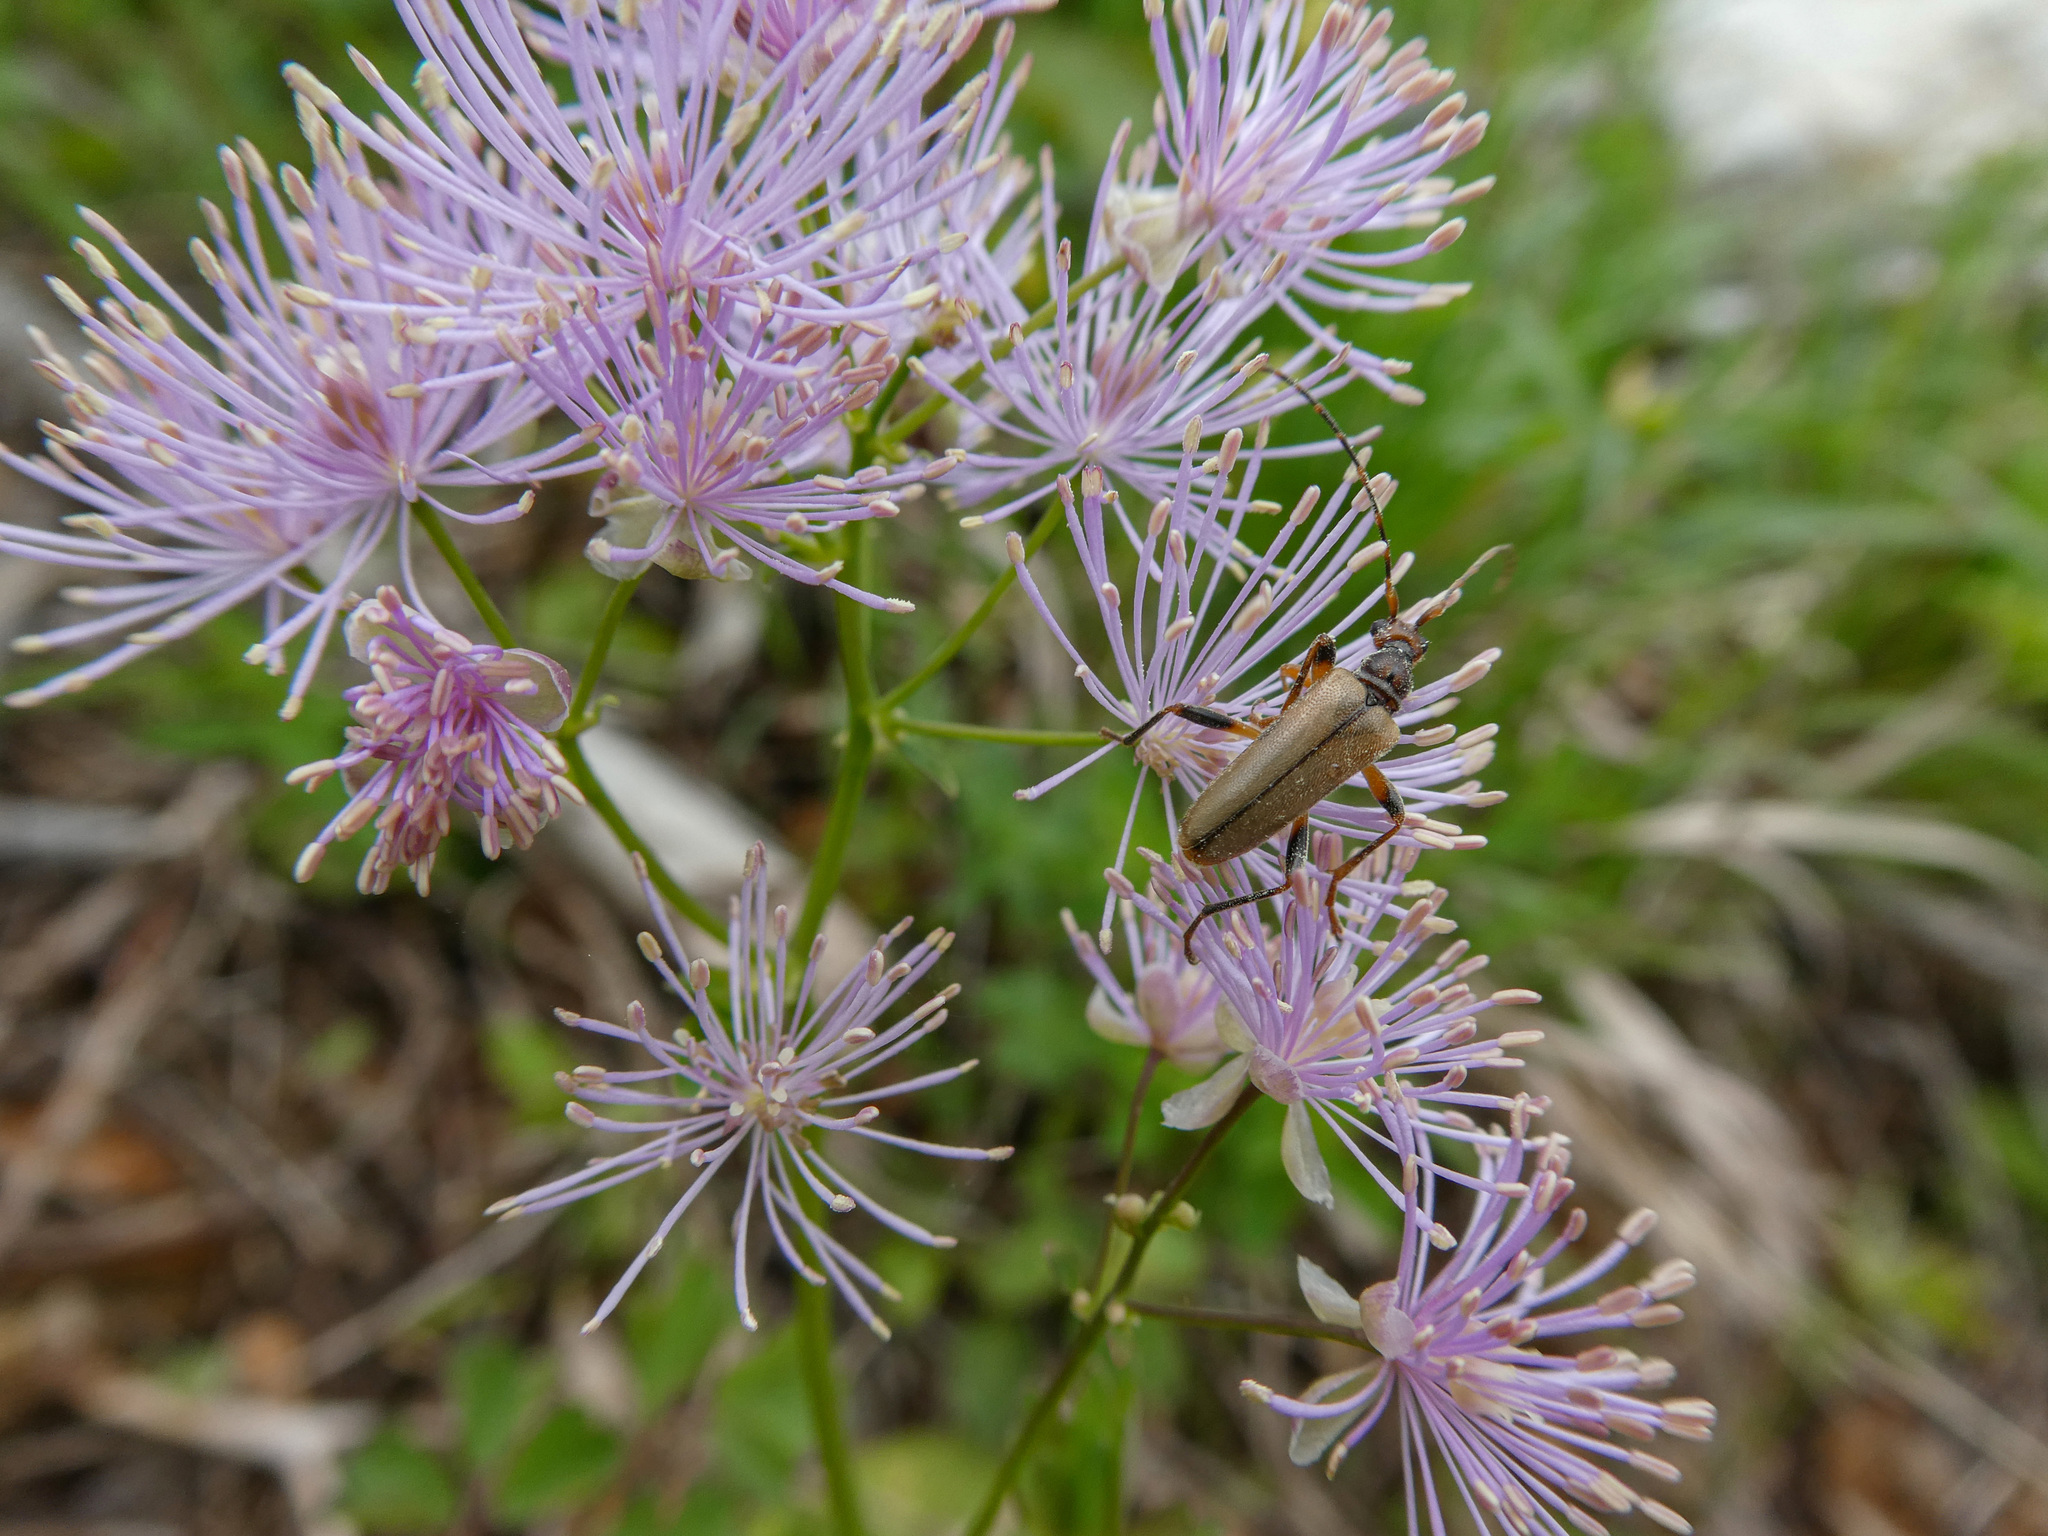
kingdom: Animalia
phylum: Arthropoda
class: Insecta
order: Coleoptera
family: Cerambycidae
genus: Pidonia
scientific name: Pidonia lurida
